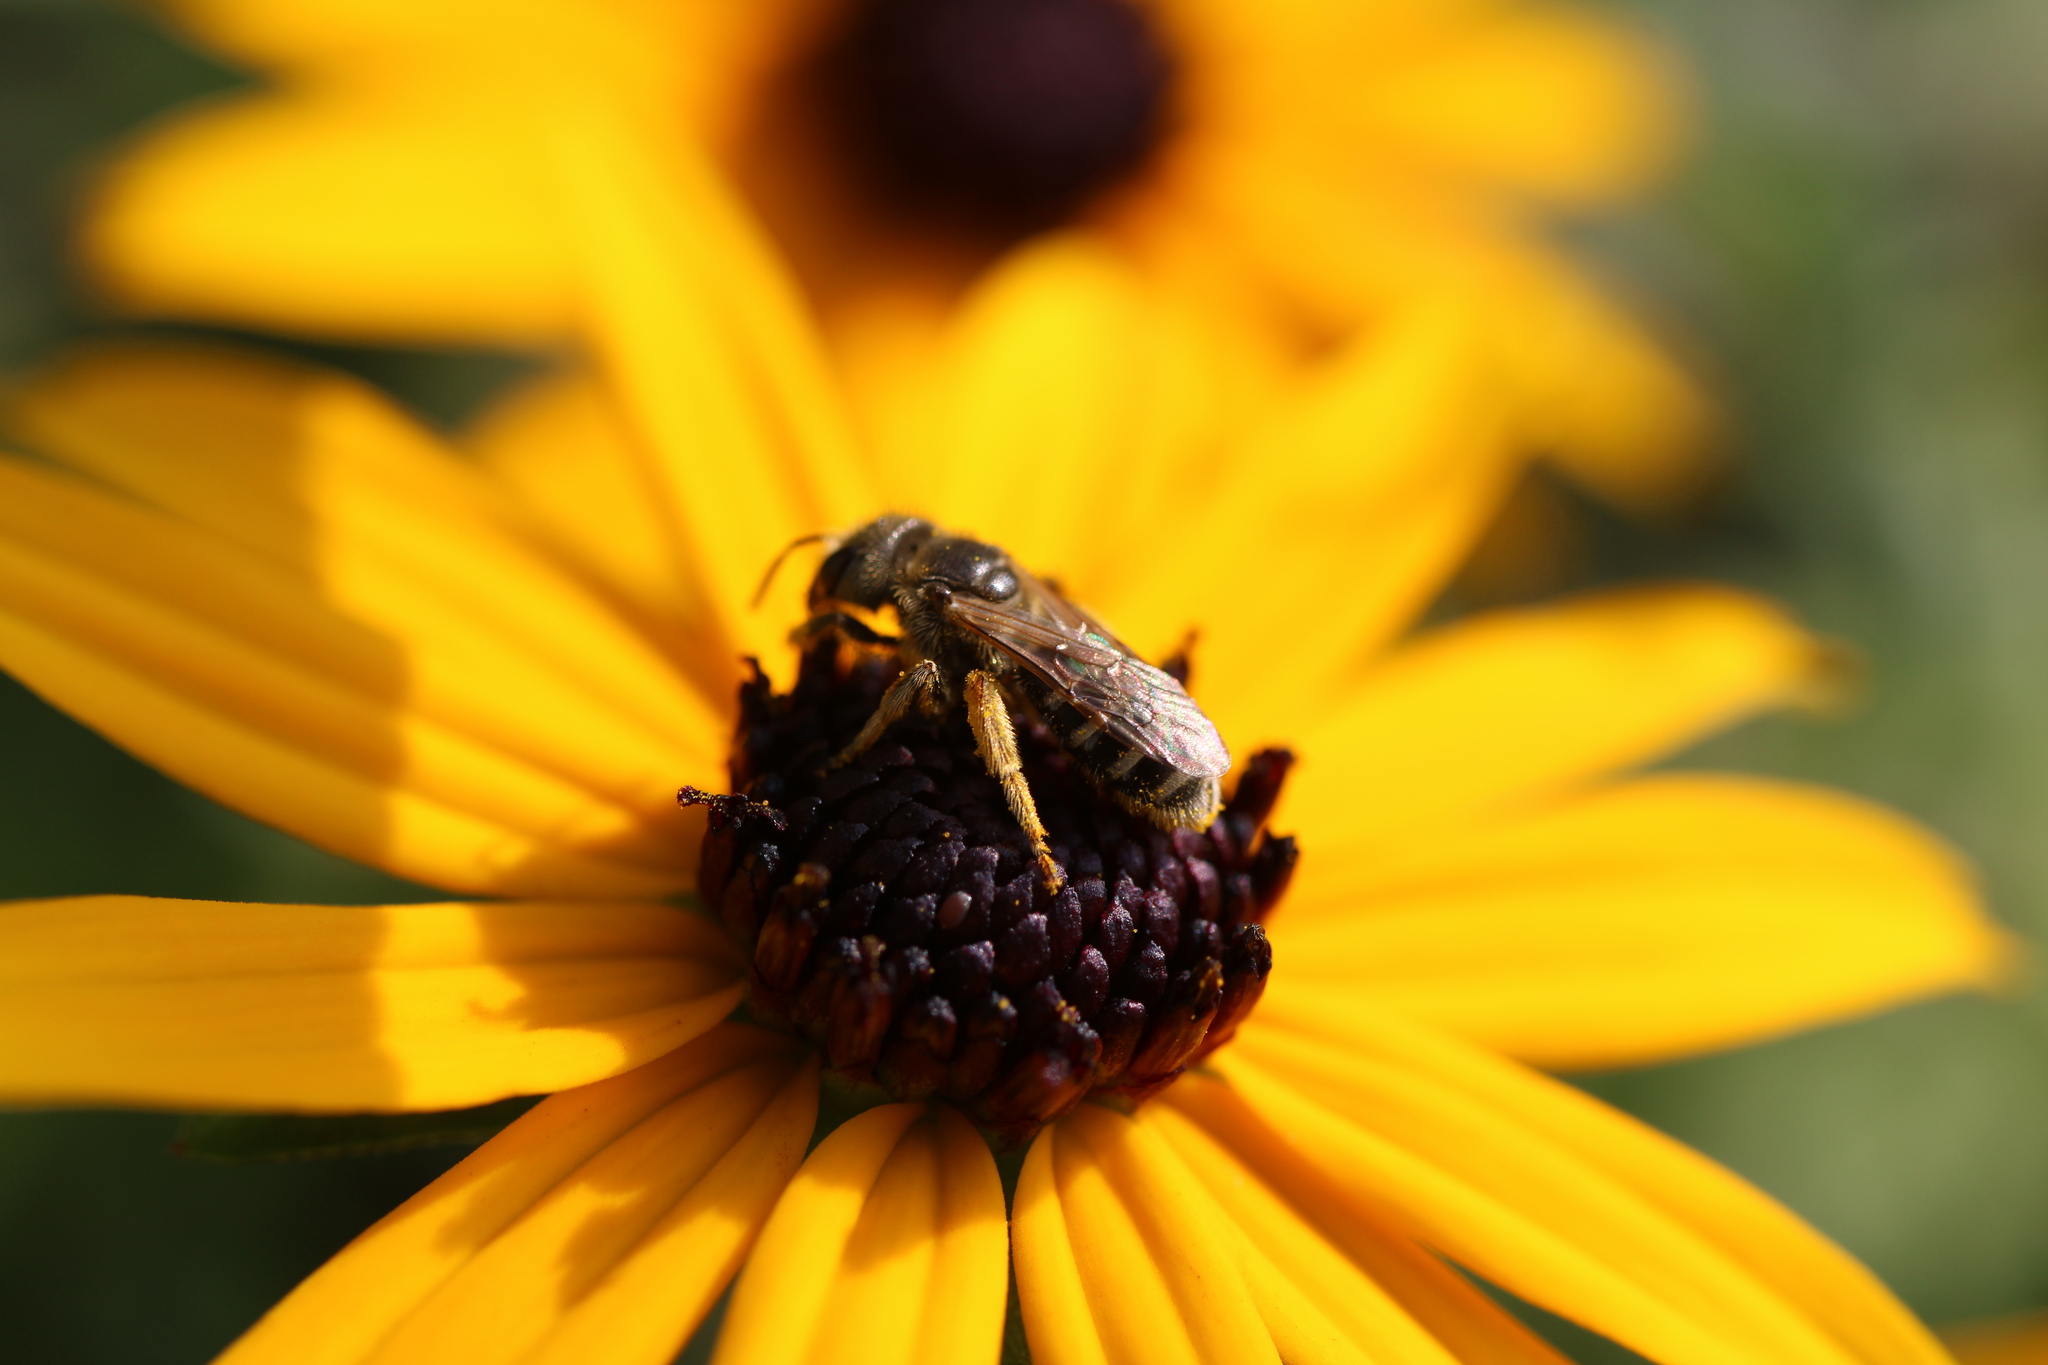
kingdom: Animalia
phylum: Arthropoda
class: Insecta
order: Hymenoptera
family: Halictidae
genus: Halictus
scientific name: Halictus ligatus
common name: Ligated furrow bee
